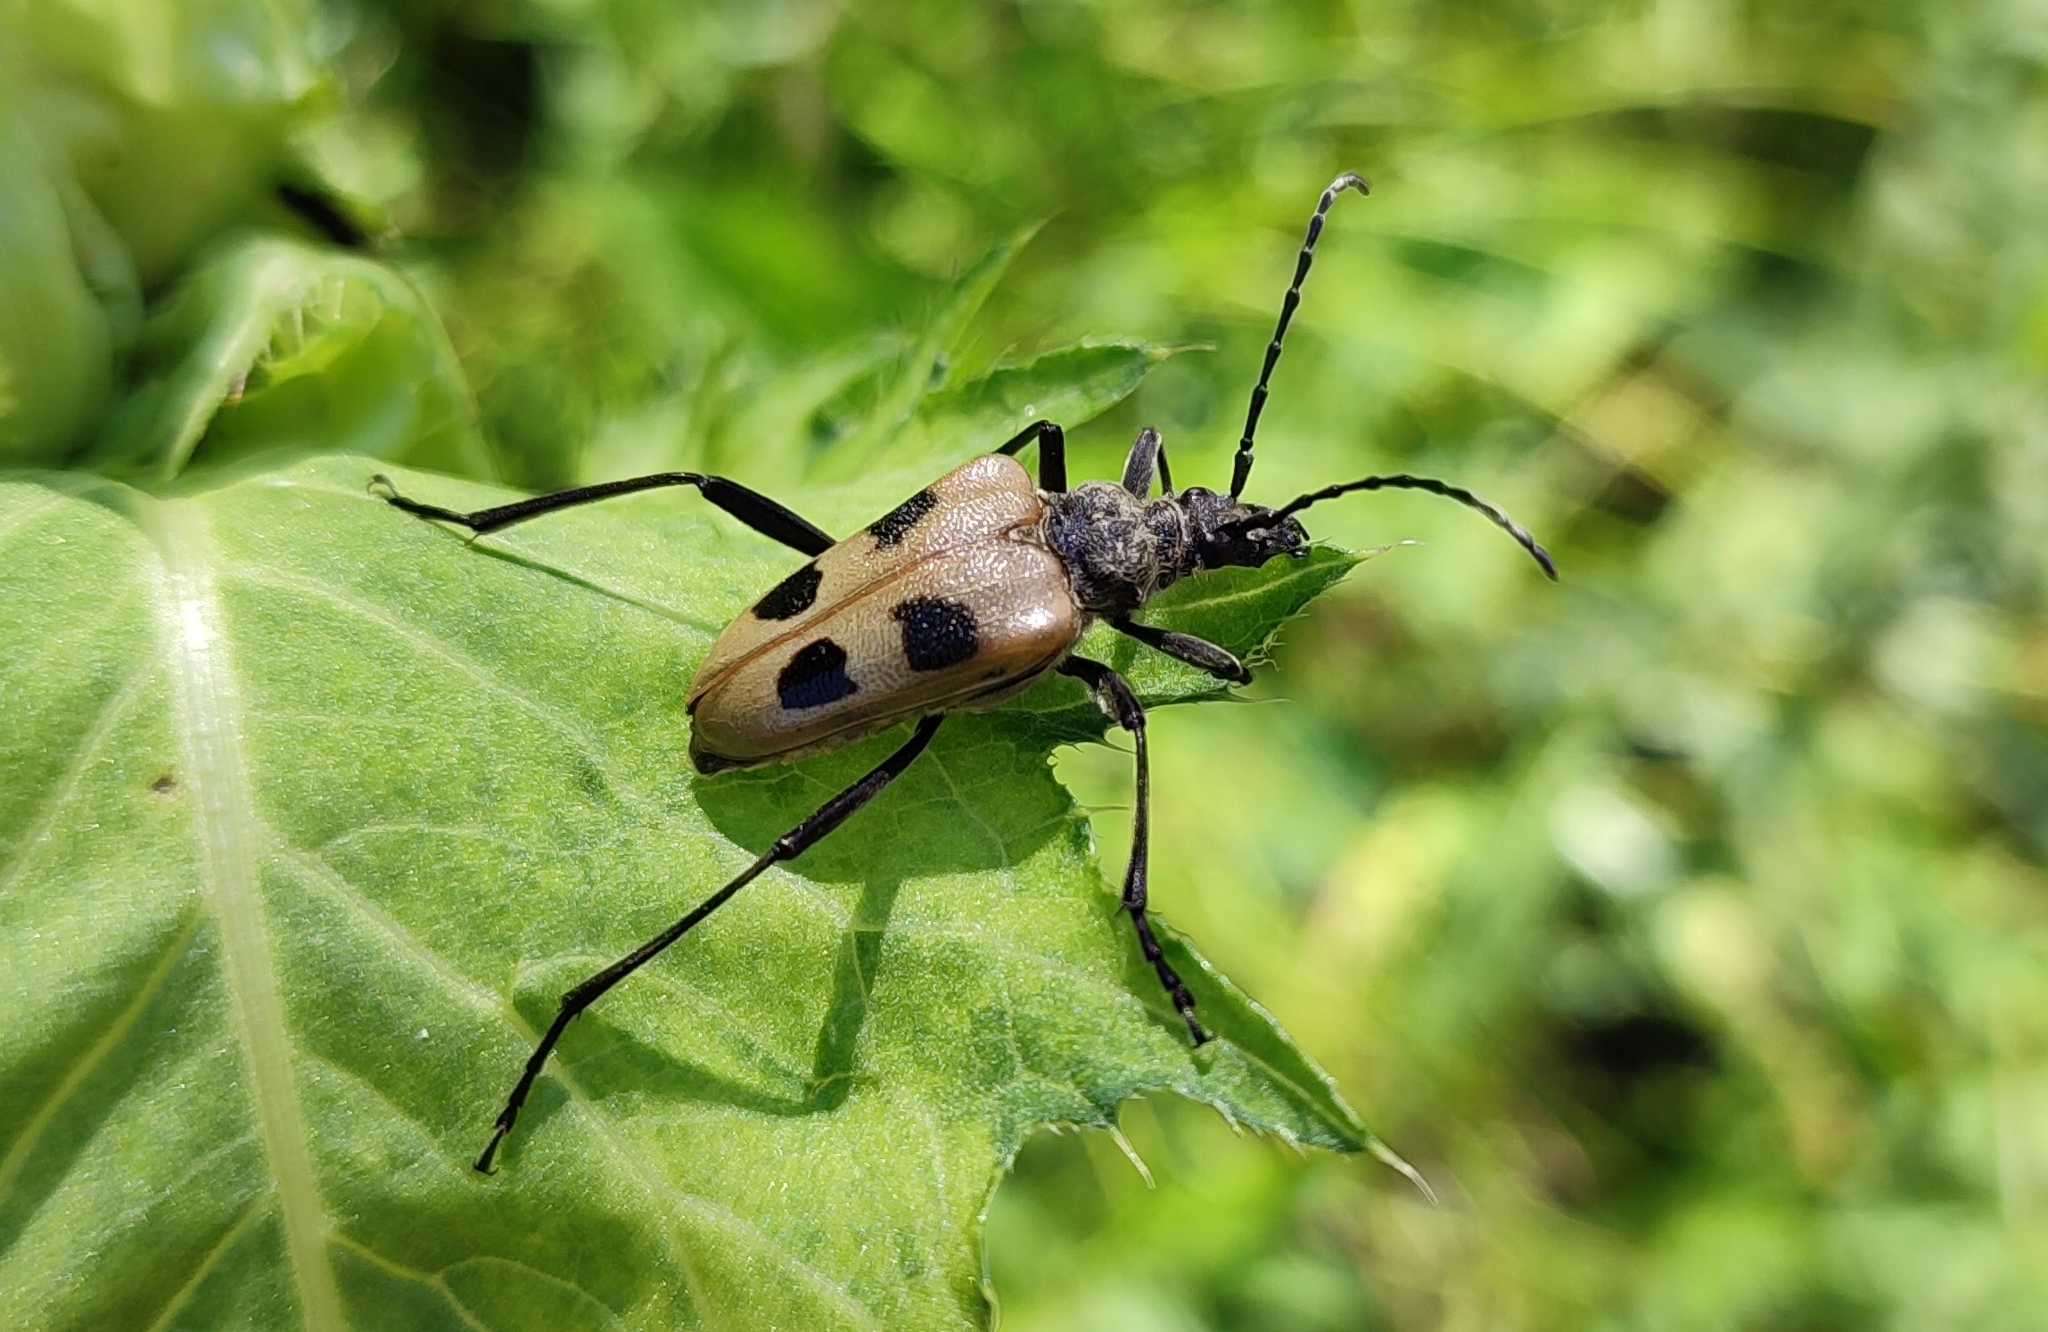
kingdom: Animalia
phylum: Arthropoda
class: Insecta
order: Coleoptera
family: Cerambycidae
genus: Pachyta
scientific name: Pachyta quadrimaculata
